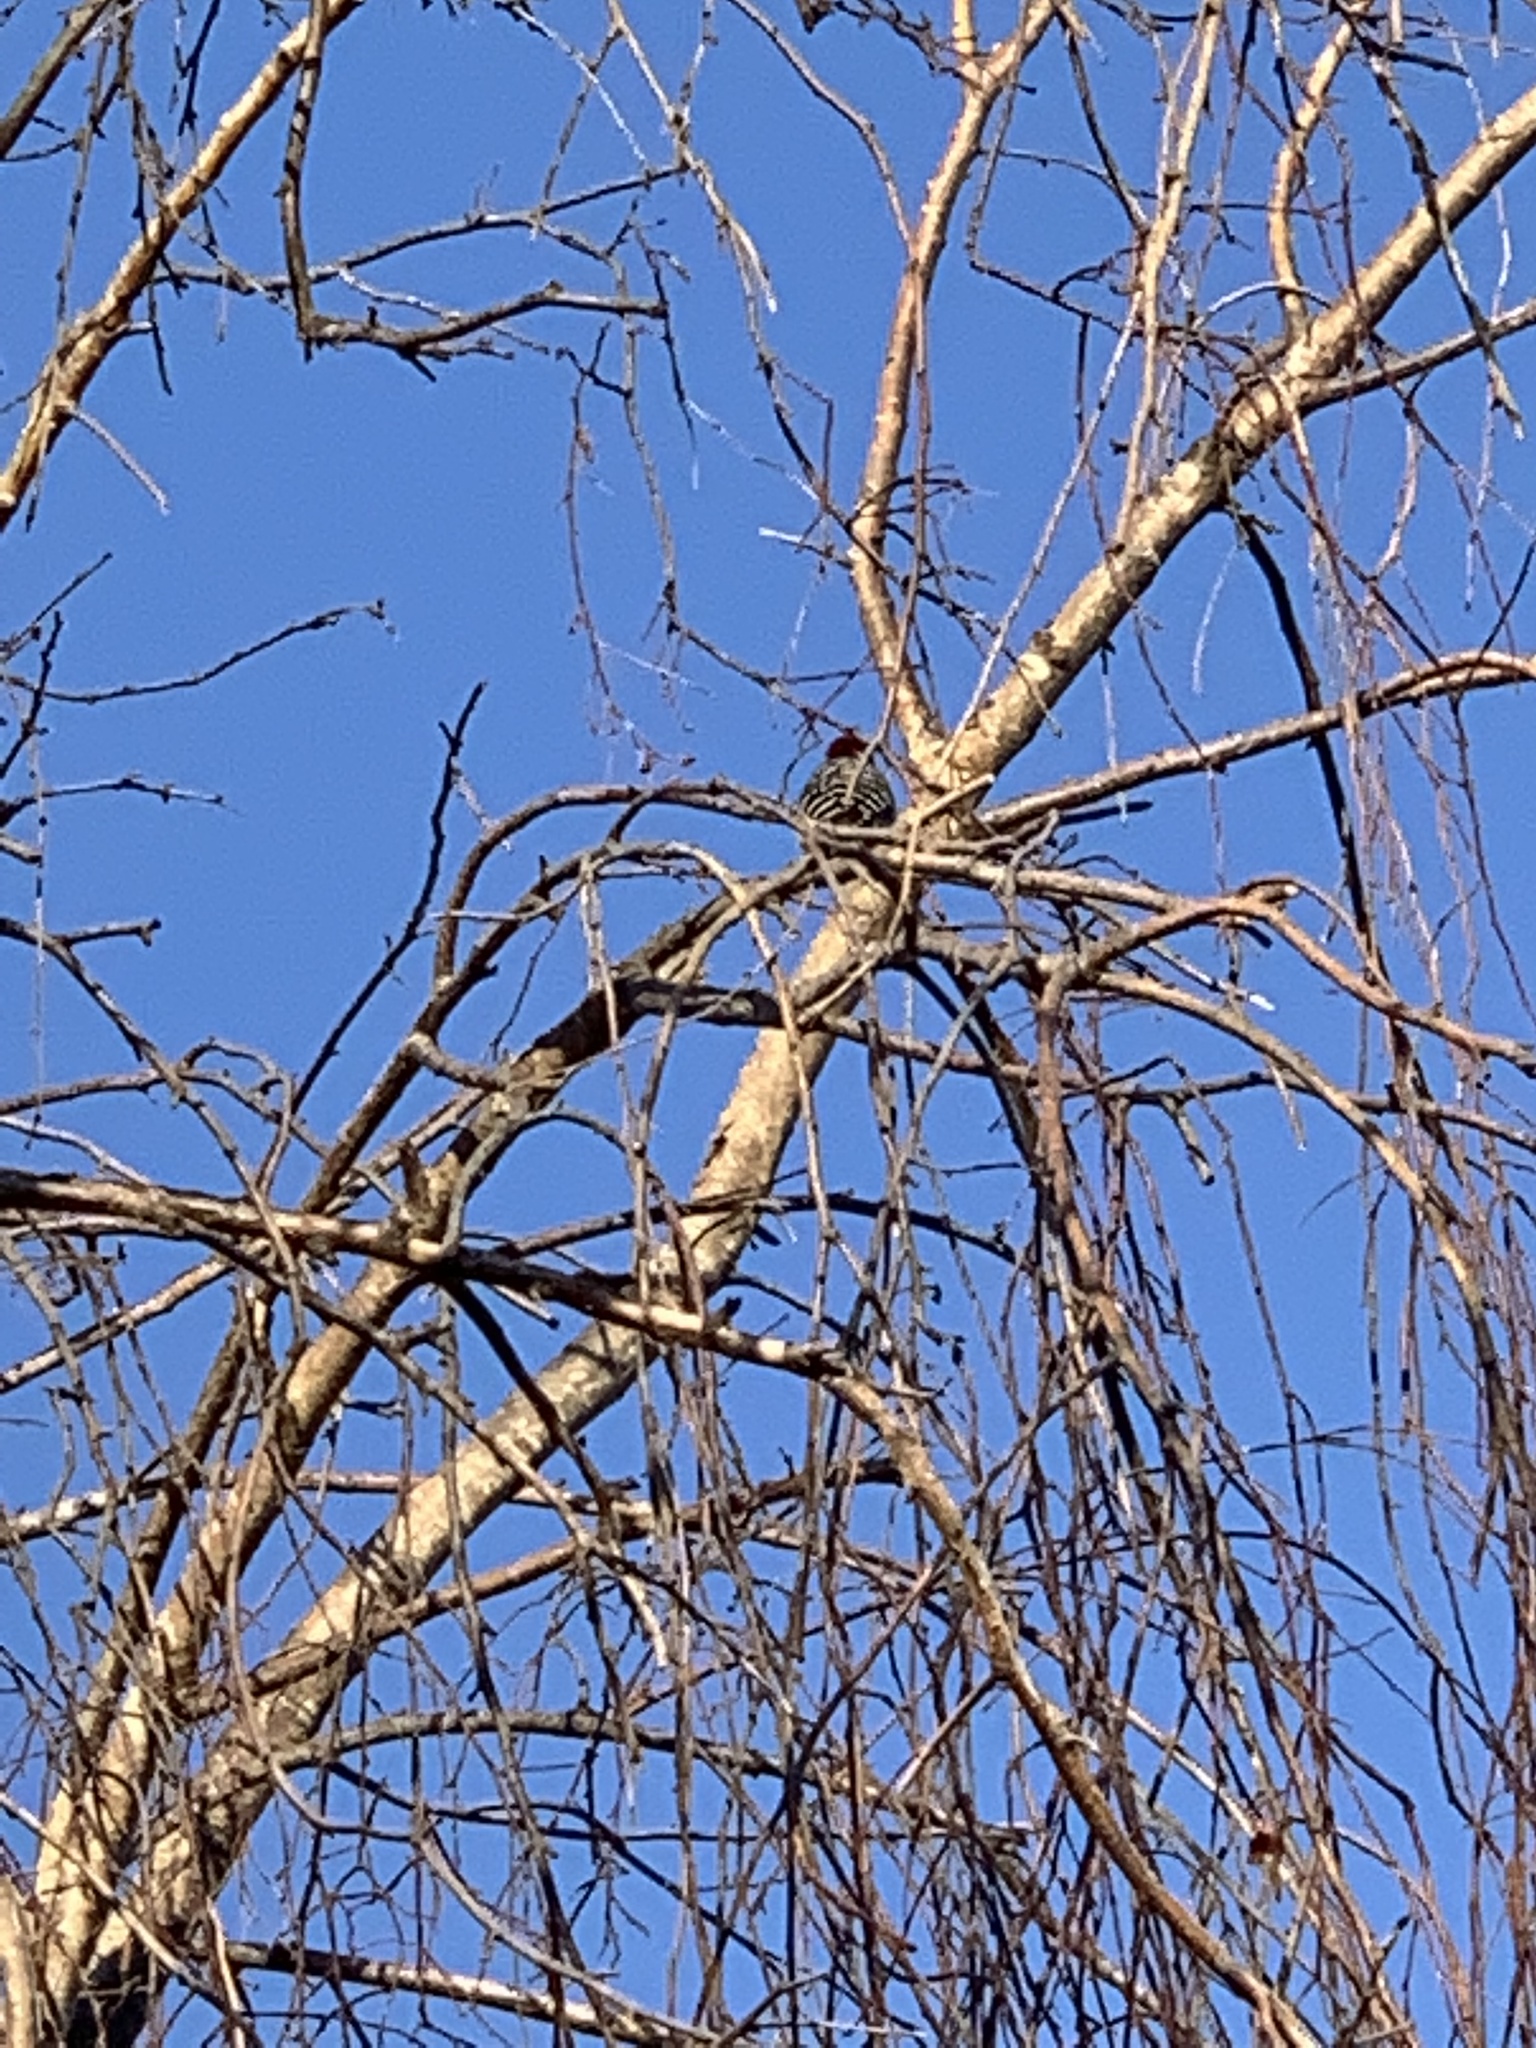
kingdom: Animalia
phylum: Chordata
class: Aves
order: Piciformes
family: Picidae
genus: Dryobates
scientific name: Dryobates nuttallii
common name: Nuttall's woodpecker
